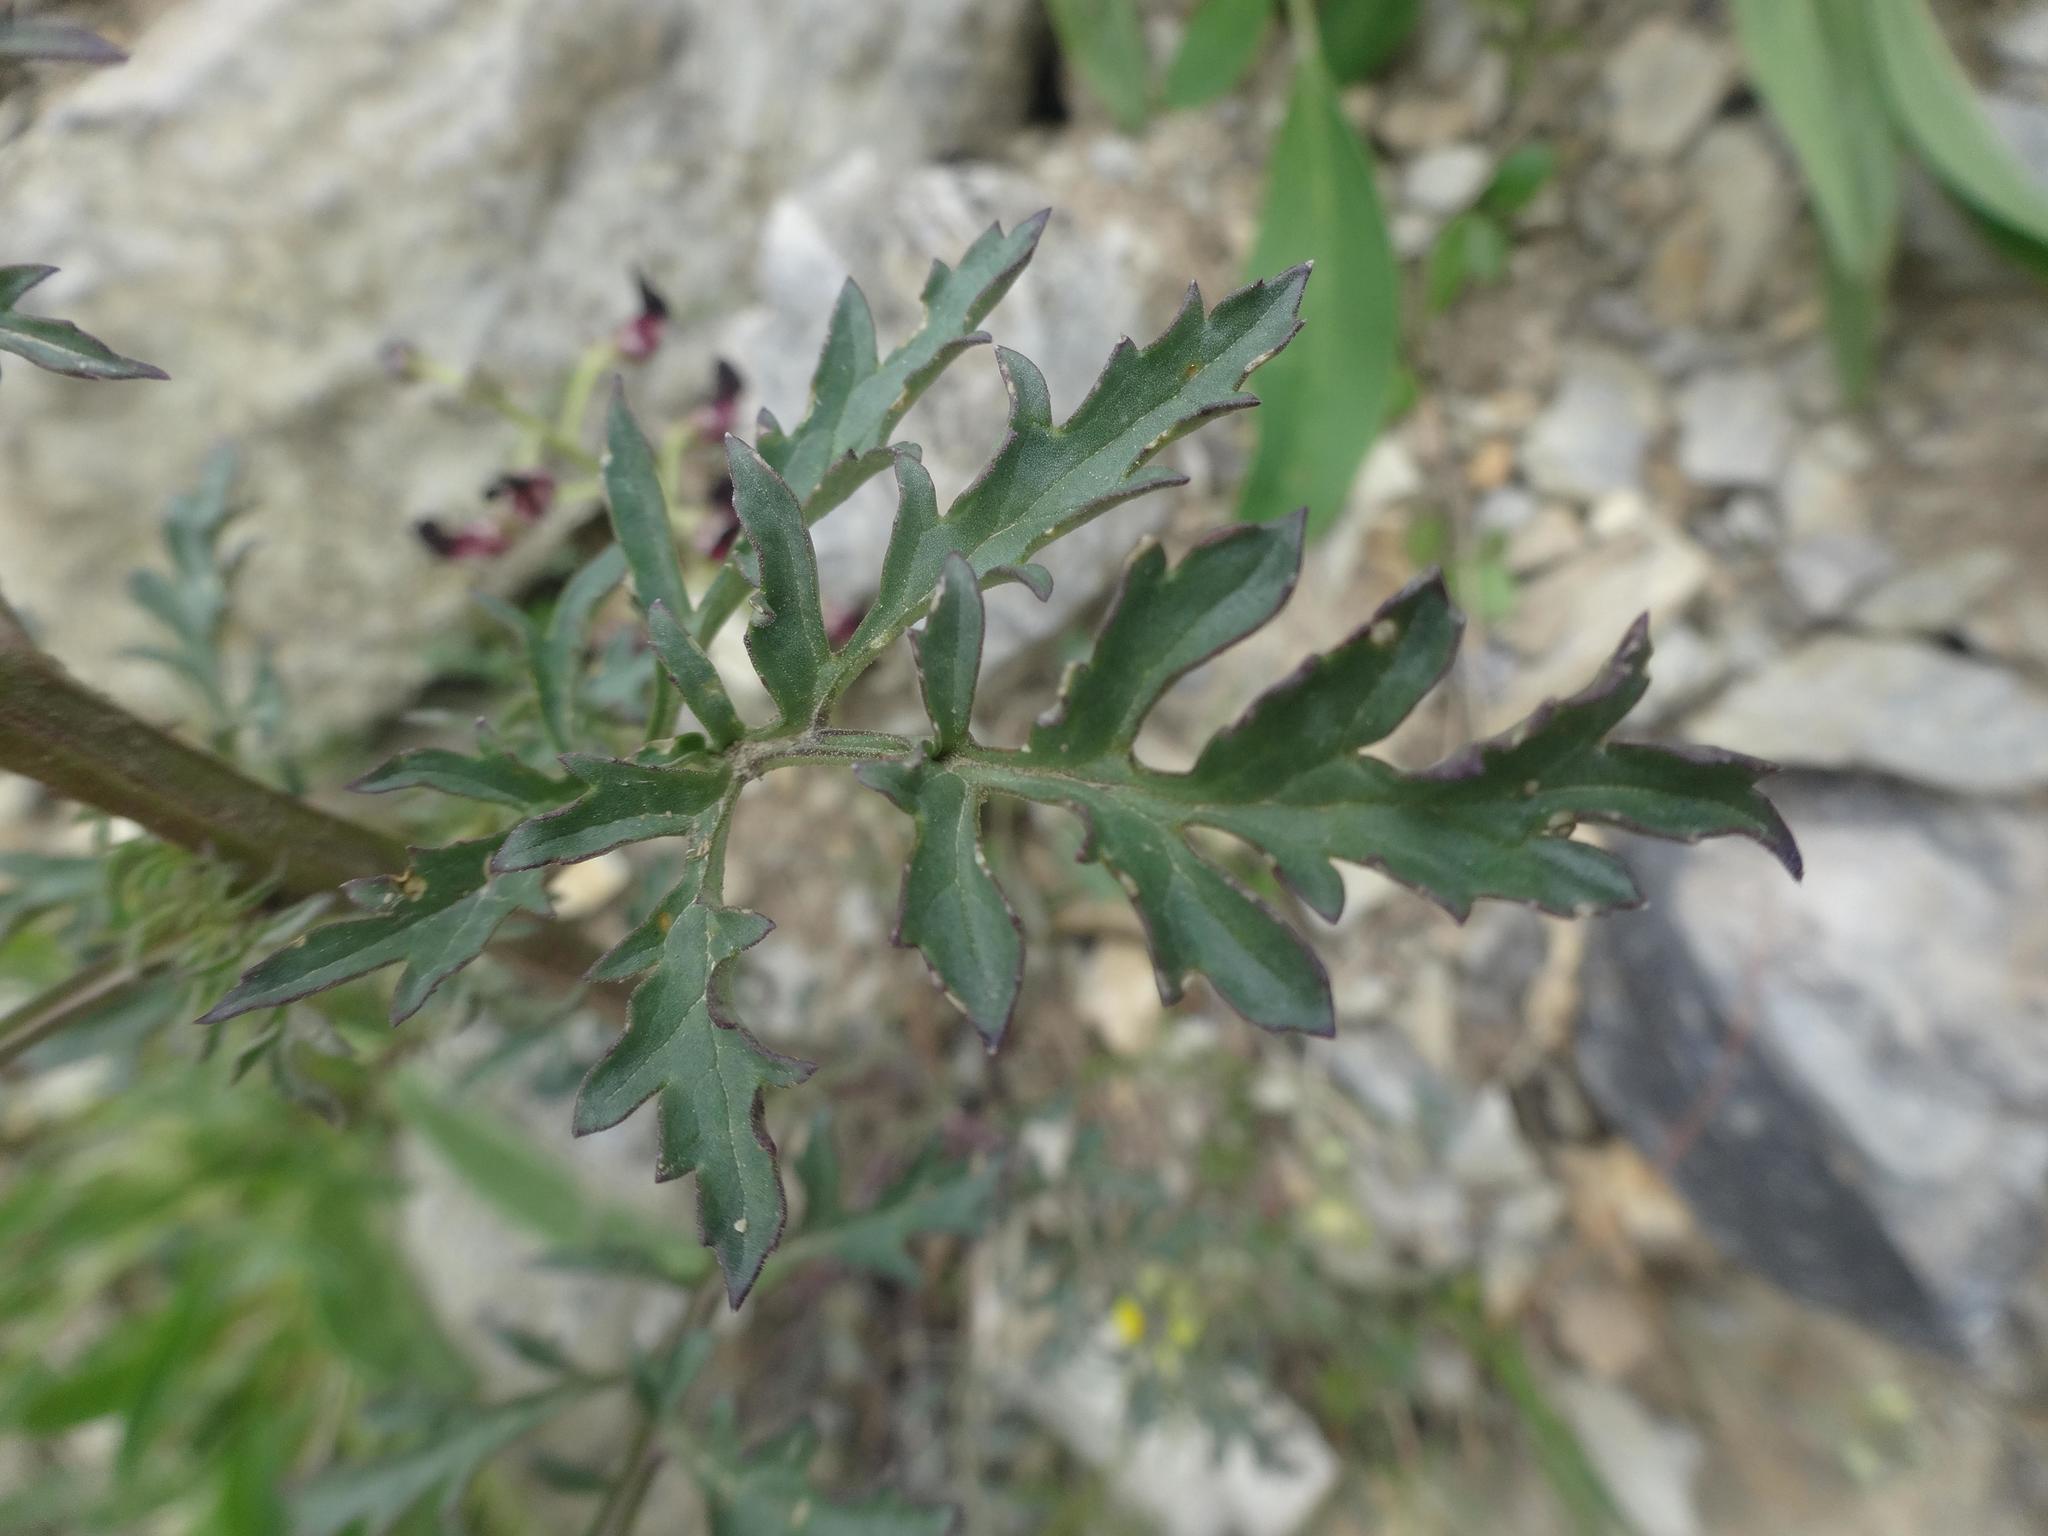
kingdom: Plantae
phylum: Tracheophyta
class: Magnoliopsida
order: Lamiales
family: Scrophulariaceae
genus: Scrophularia
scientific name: Scrophularia nodosa
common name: Common figwort
